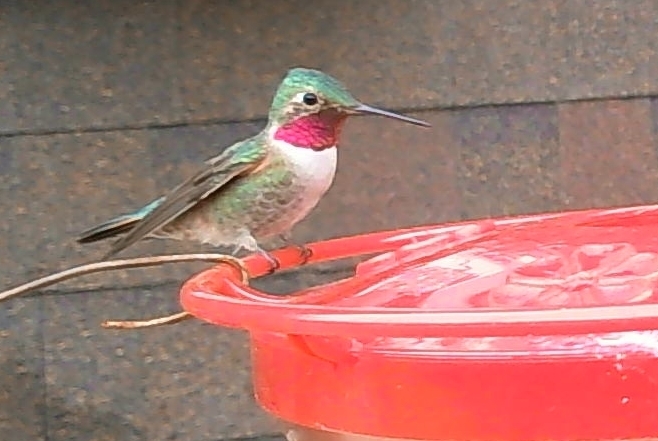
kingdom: Animalia
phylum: Chordata
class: Aves
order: Apodiformes
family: Trochilidae
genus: Selasphorus
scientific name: Selasphorus platycercus
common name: Broad-tailed hummingbird
